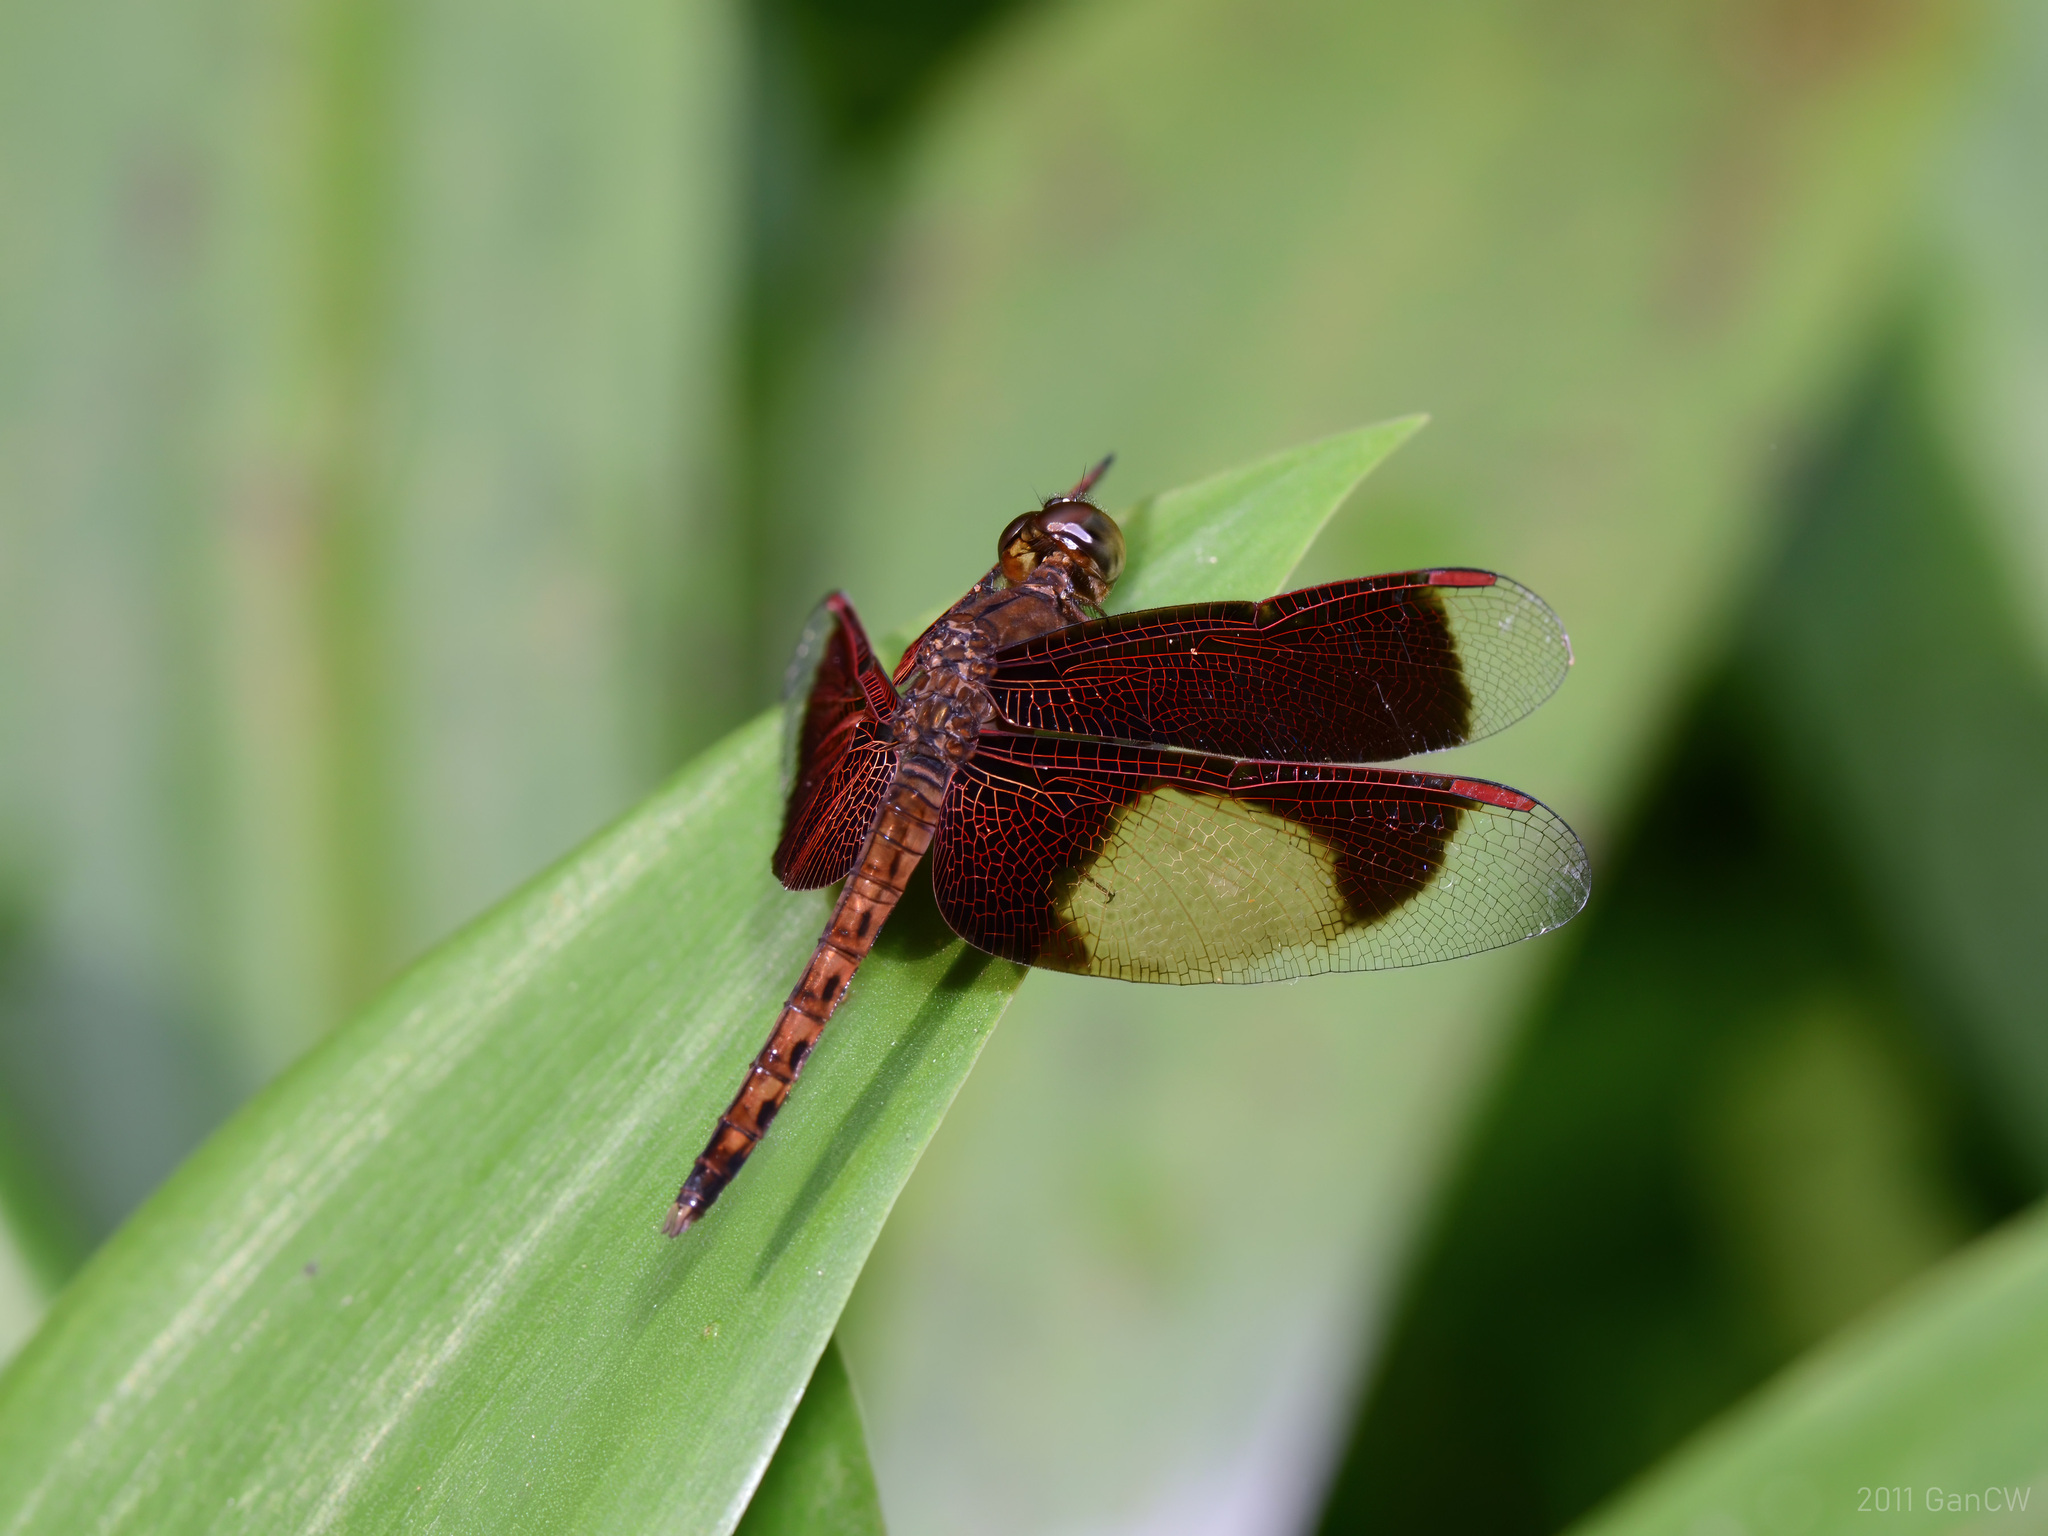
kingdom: Animalia
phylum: Arthropoda
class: Insecta
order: Odonata
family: Libellulidae
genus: Neurothemis
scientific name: Neurothemis fluctuans
